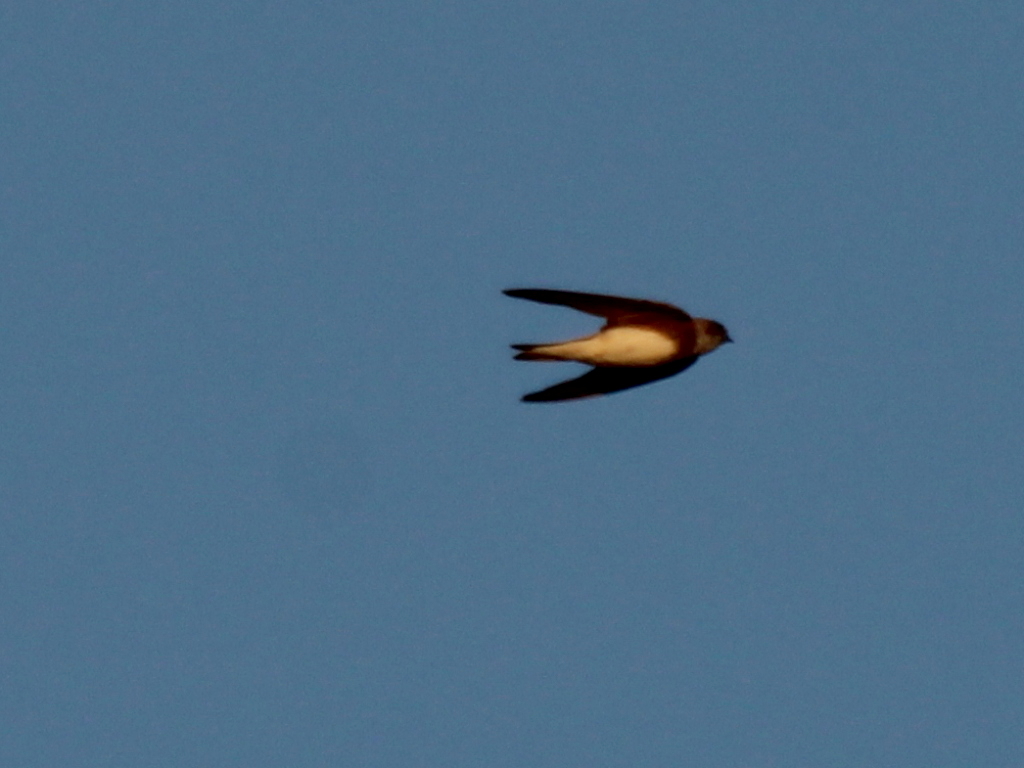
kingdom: Animalia
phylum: Chordata
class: Aves
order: Passeriformes
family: Hirundinidae
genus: Riparia
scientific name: Riparia riparia
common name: Sand martin
